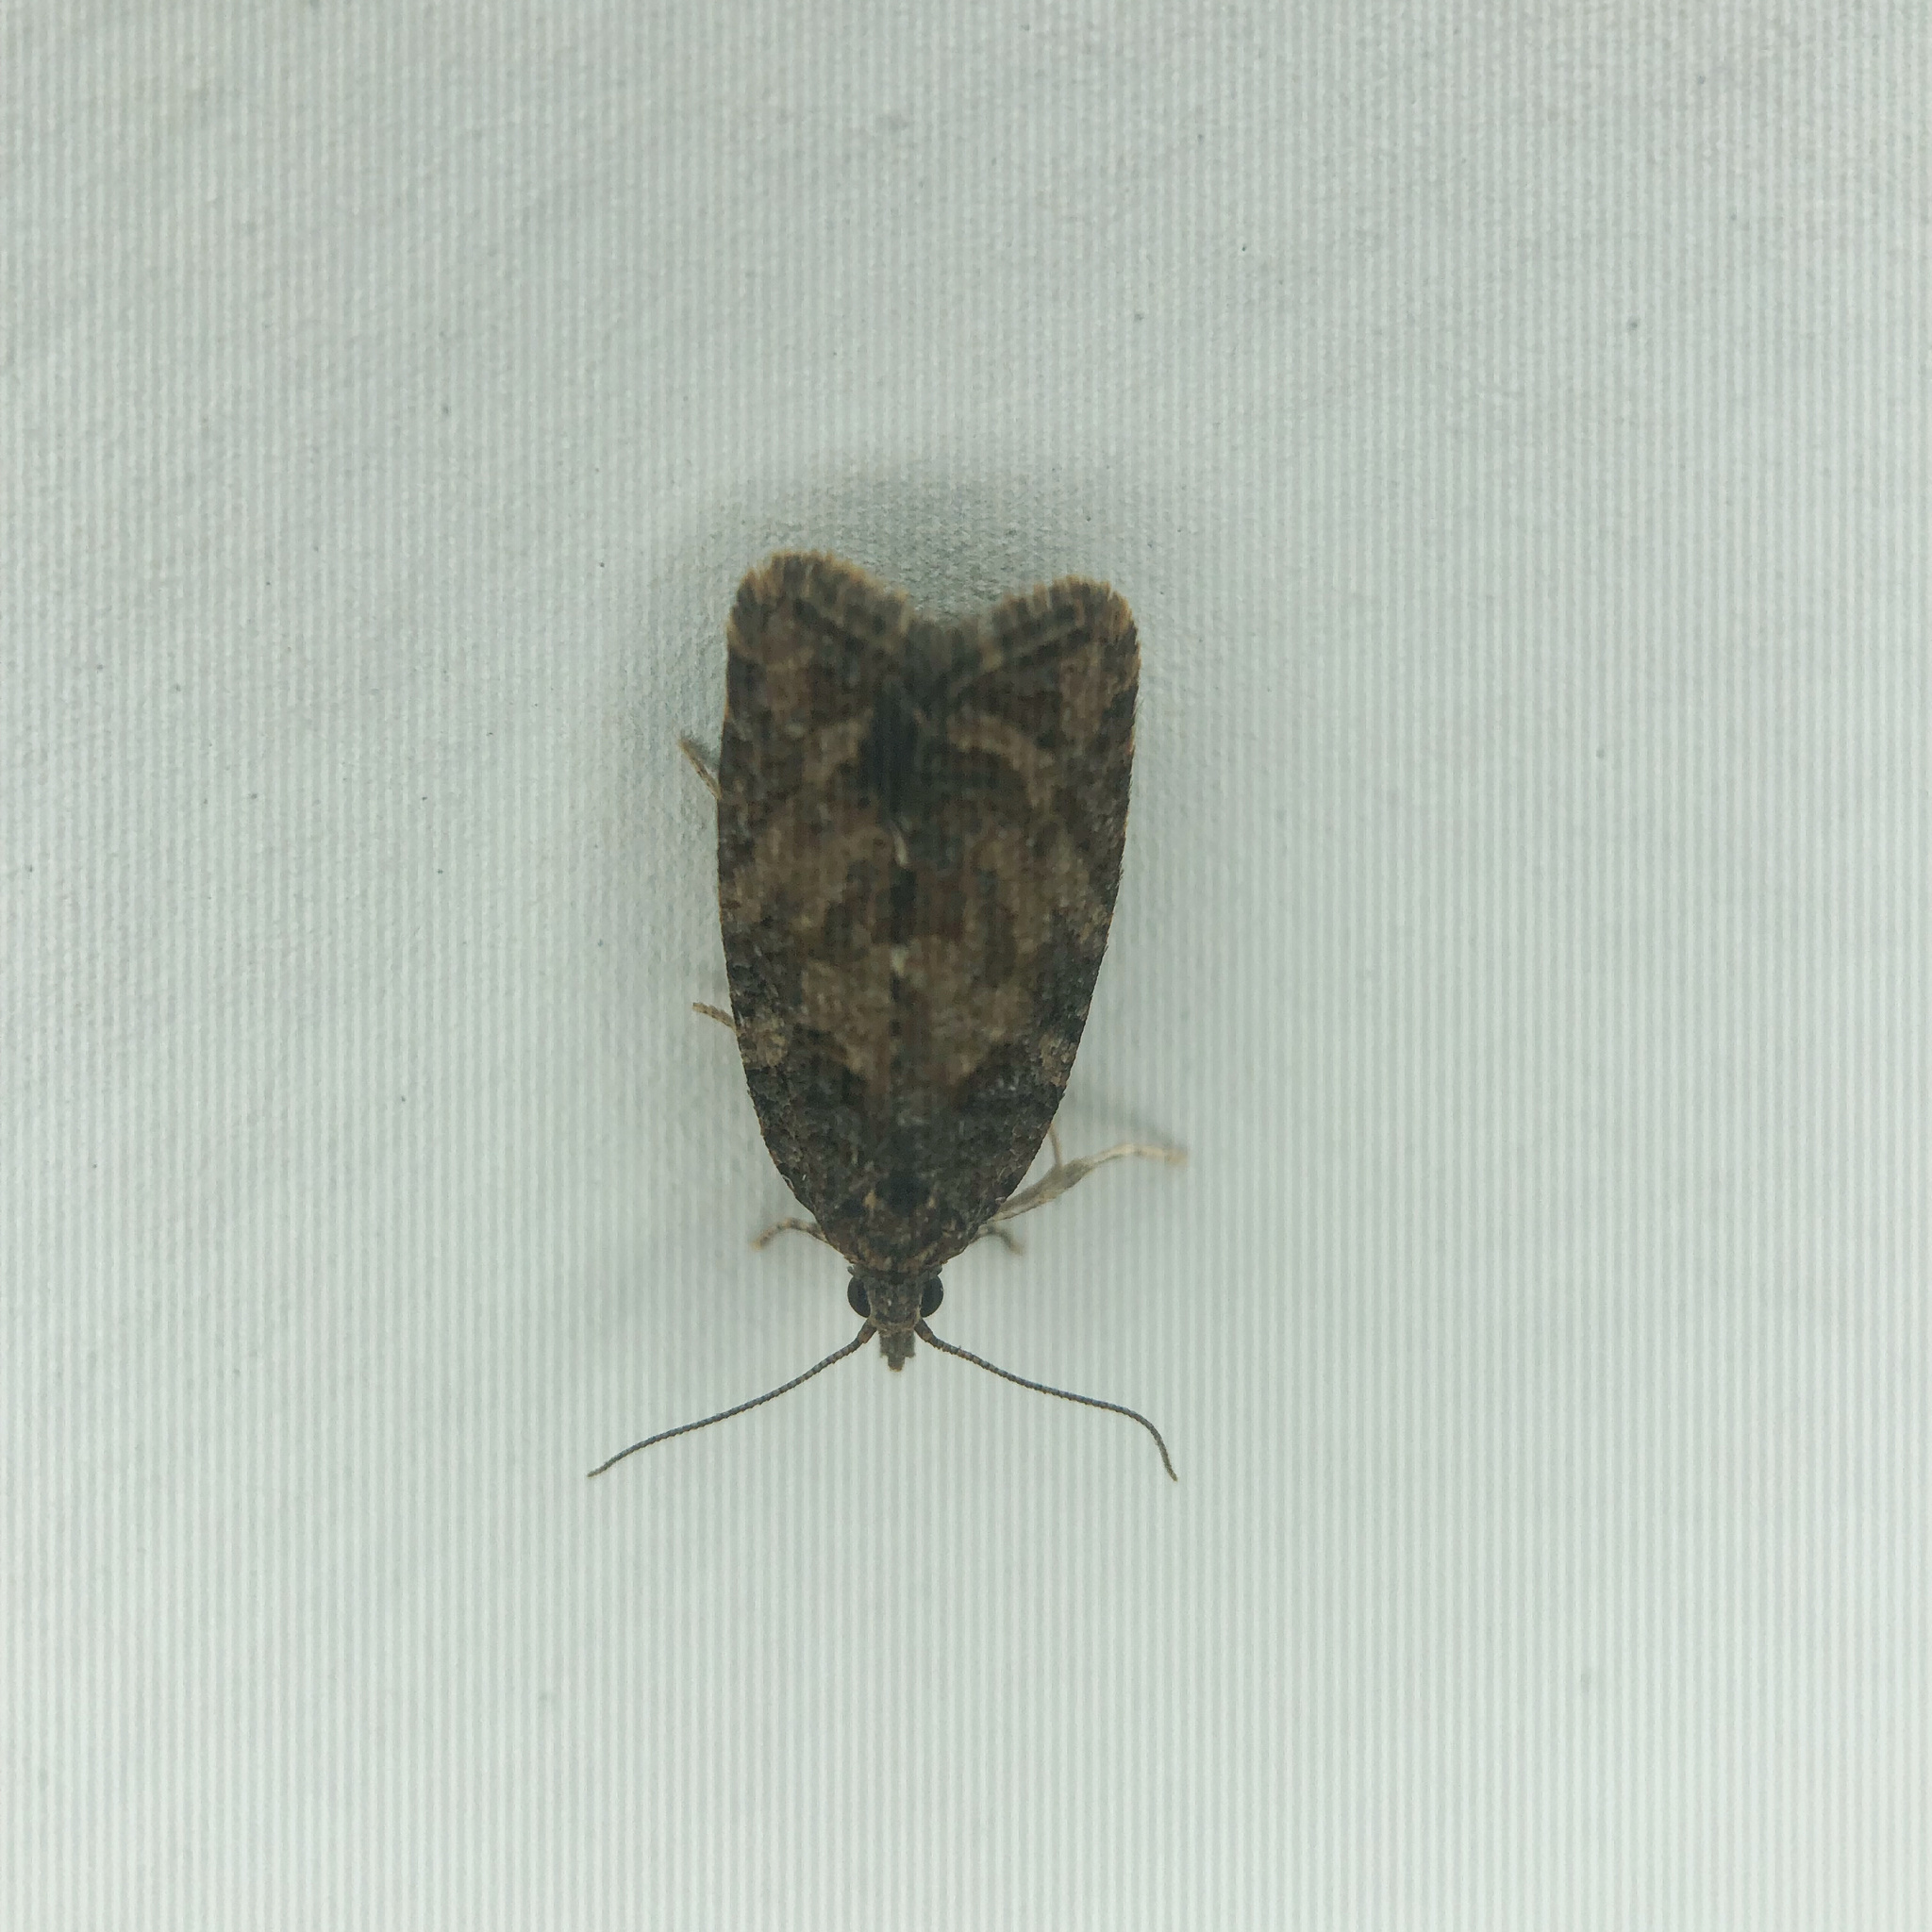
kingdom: Animalia
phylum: Arthropoda
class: Insecta
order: Lepidoptera
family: Tortricidae
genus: Capua
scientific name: Capua intractana
